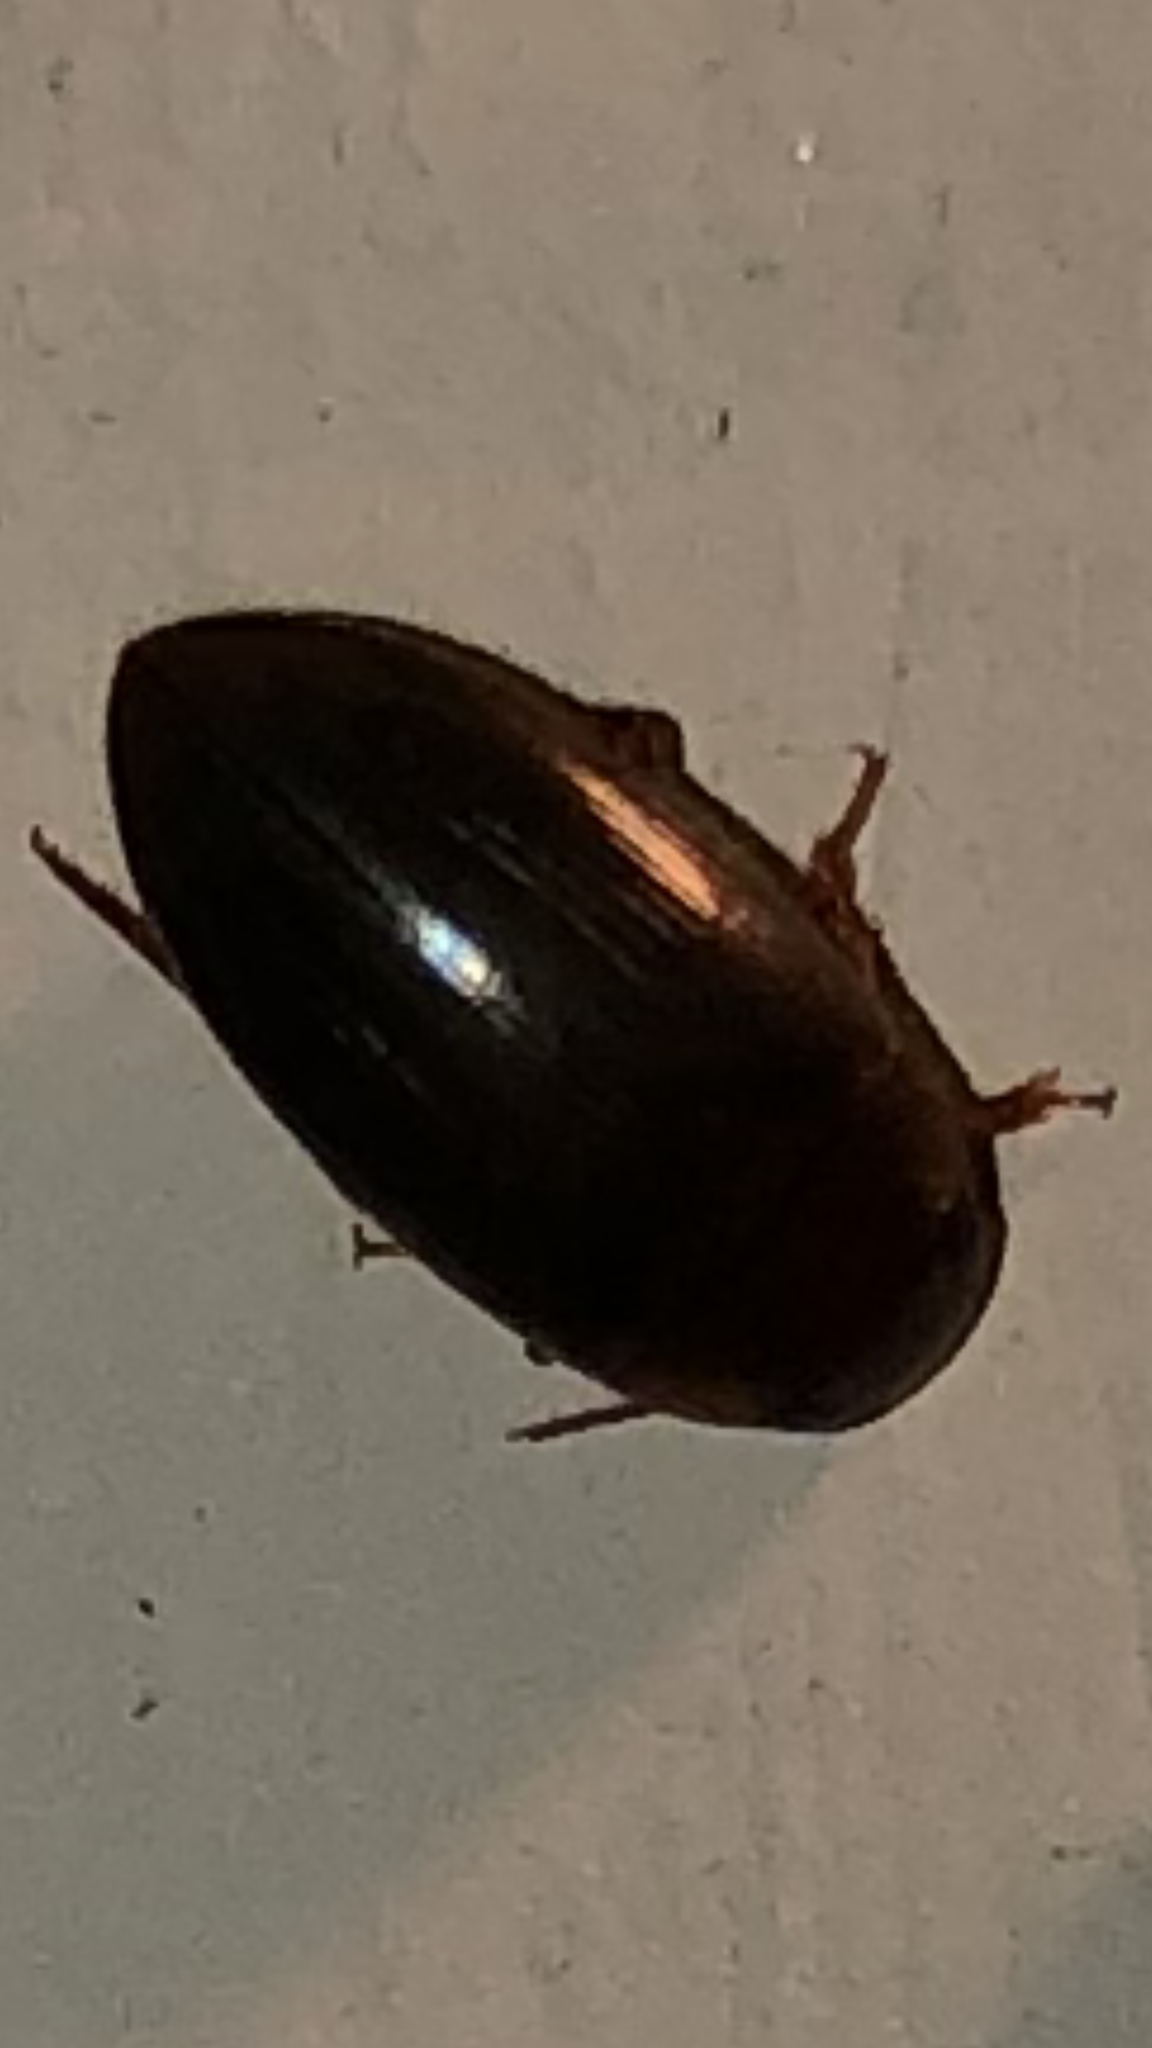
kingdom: Animalia
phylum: Arthropoda
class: Insecta
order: Coleoptera
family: Dytiscidae
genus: Copelatus
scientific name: Copelatus chevrolati
